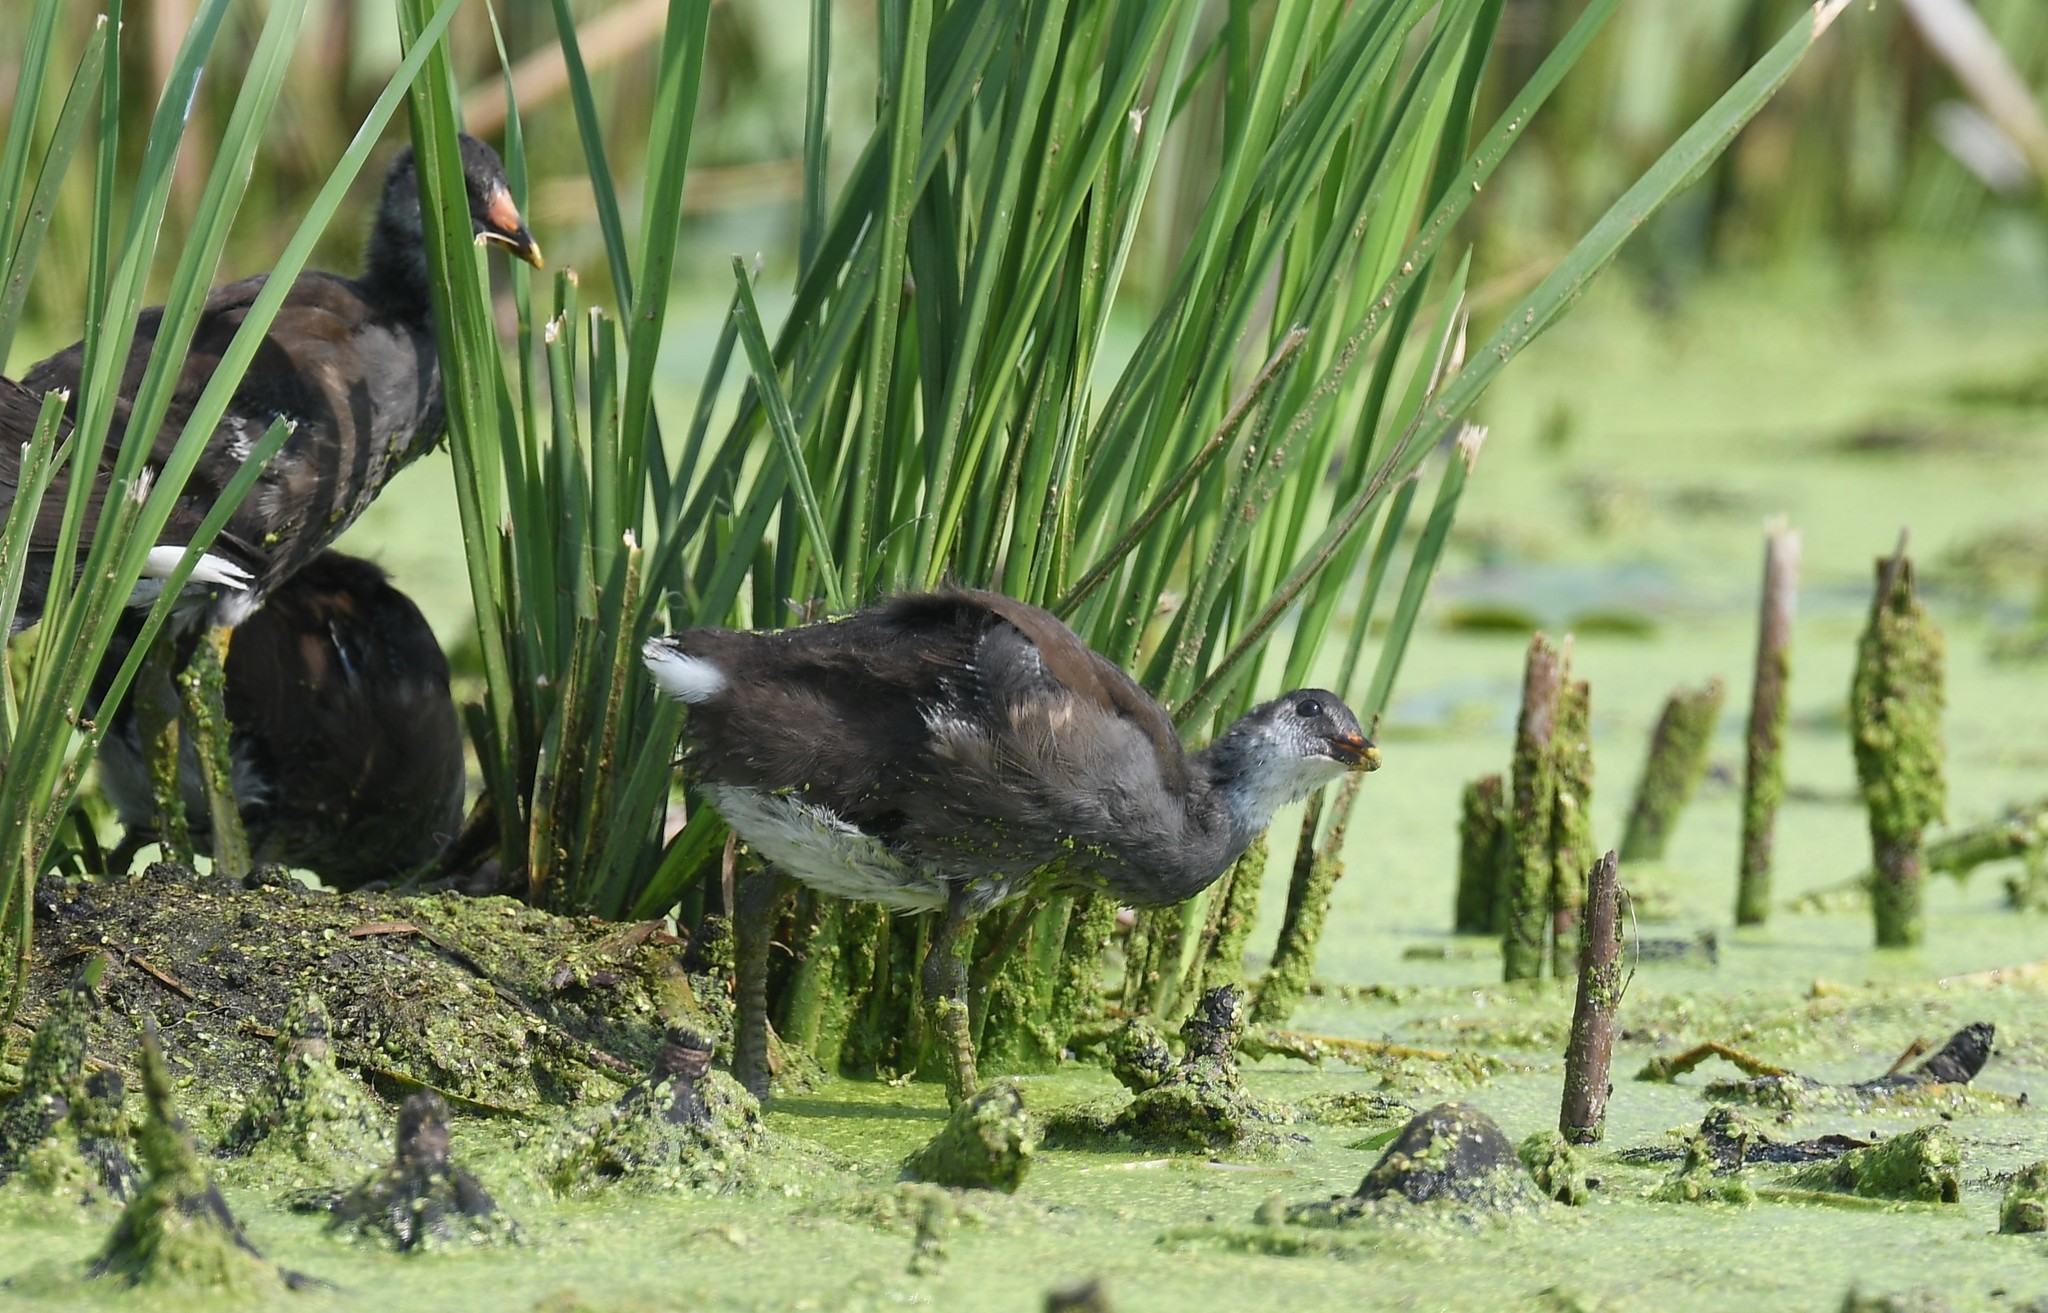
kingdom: Animalia
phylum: Chordata
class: Aves
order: Gruiformes
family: Rallidae
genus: Gallinula
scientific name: Gallinula chloropus
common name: Common moorhen
